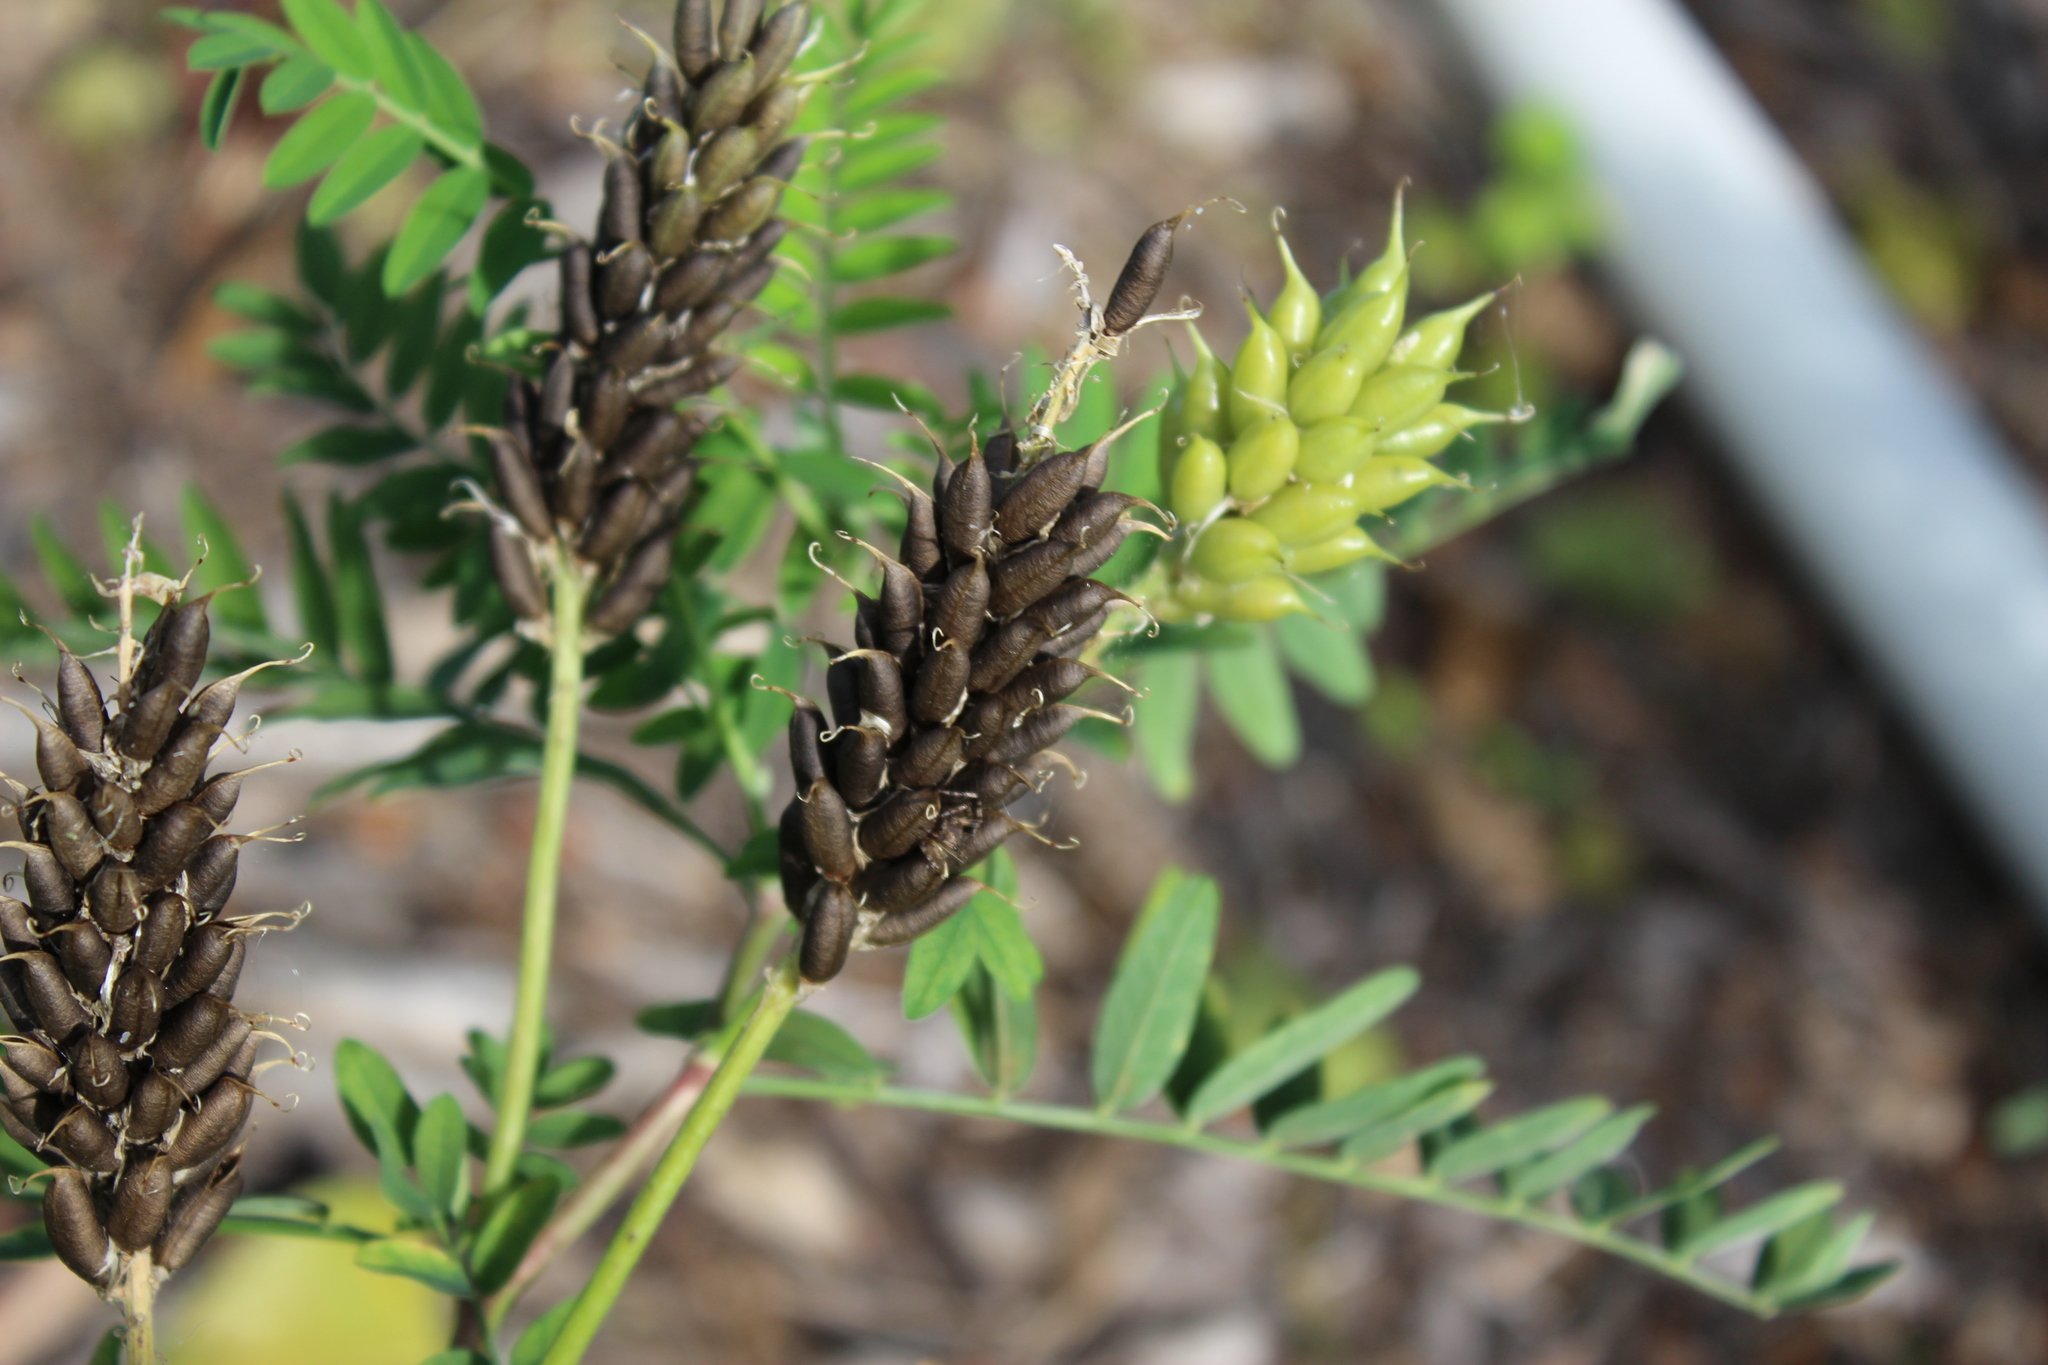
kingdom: Plantae
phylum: Tracheophyta
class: Magnoliopsida
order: Fabales
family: Fabaceae
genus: Astragalus
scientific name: Astragalus canadensis
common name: Canada milk-vetch
